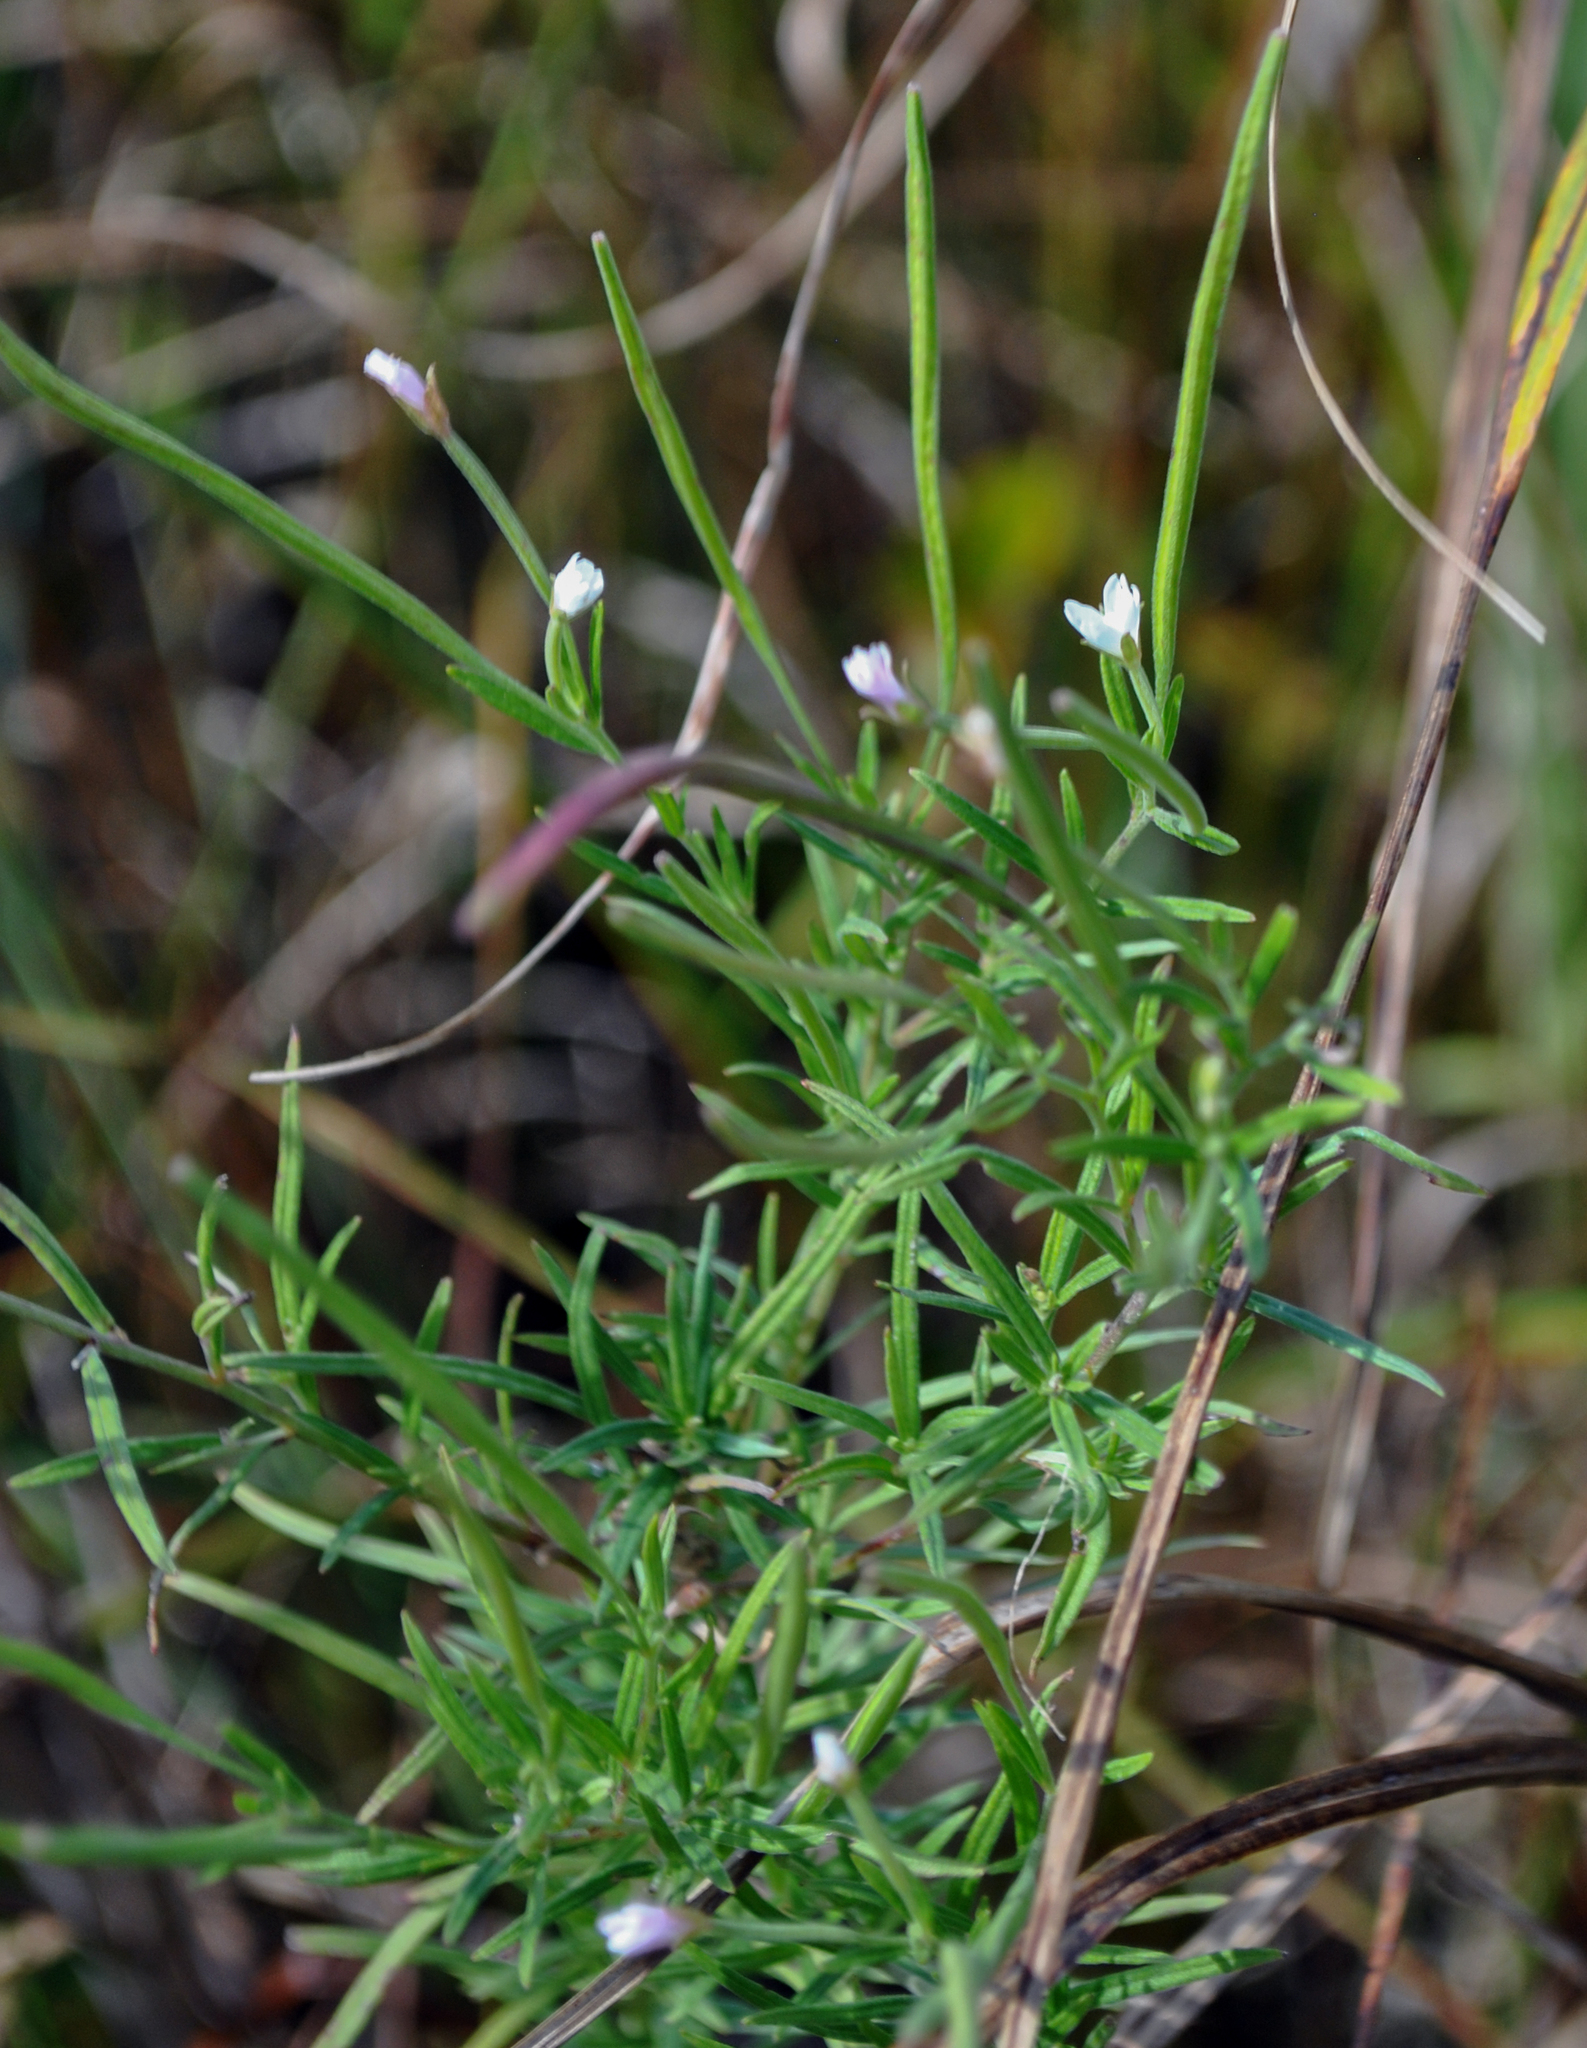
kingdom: Plantae
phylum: Tracheophyta
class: Magnoliopsida
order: Myrtales
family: Onagraceae
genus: Epilobium
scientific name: Epilobium leptophyllum
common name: Bog willowherb
